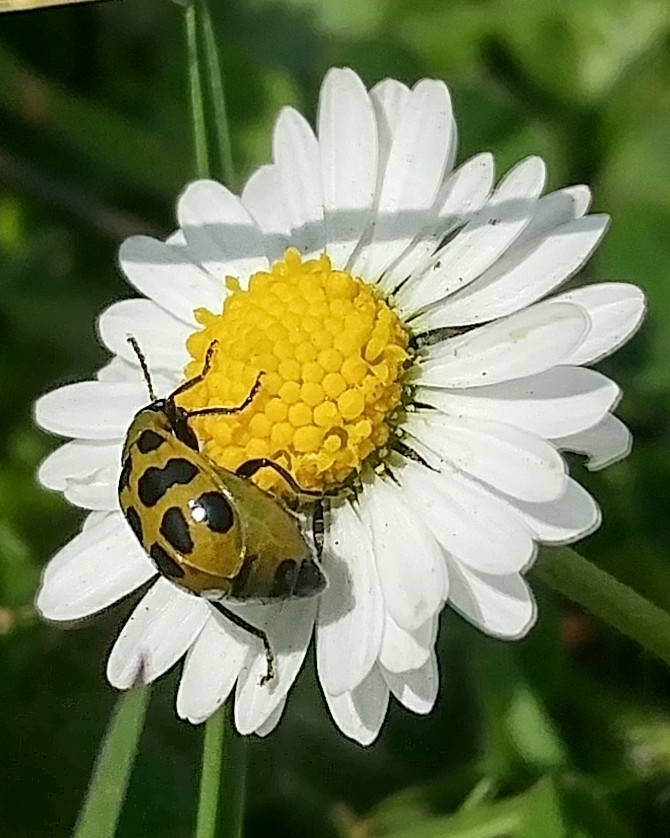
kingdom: Animalia
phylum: Arthropoda
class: Insecta
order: Coleoptera
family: Chrysomelidae
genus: Diabrotica
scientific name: Diabrotica undecimpunctata
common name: Spotted cucumber beetle
